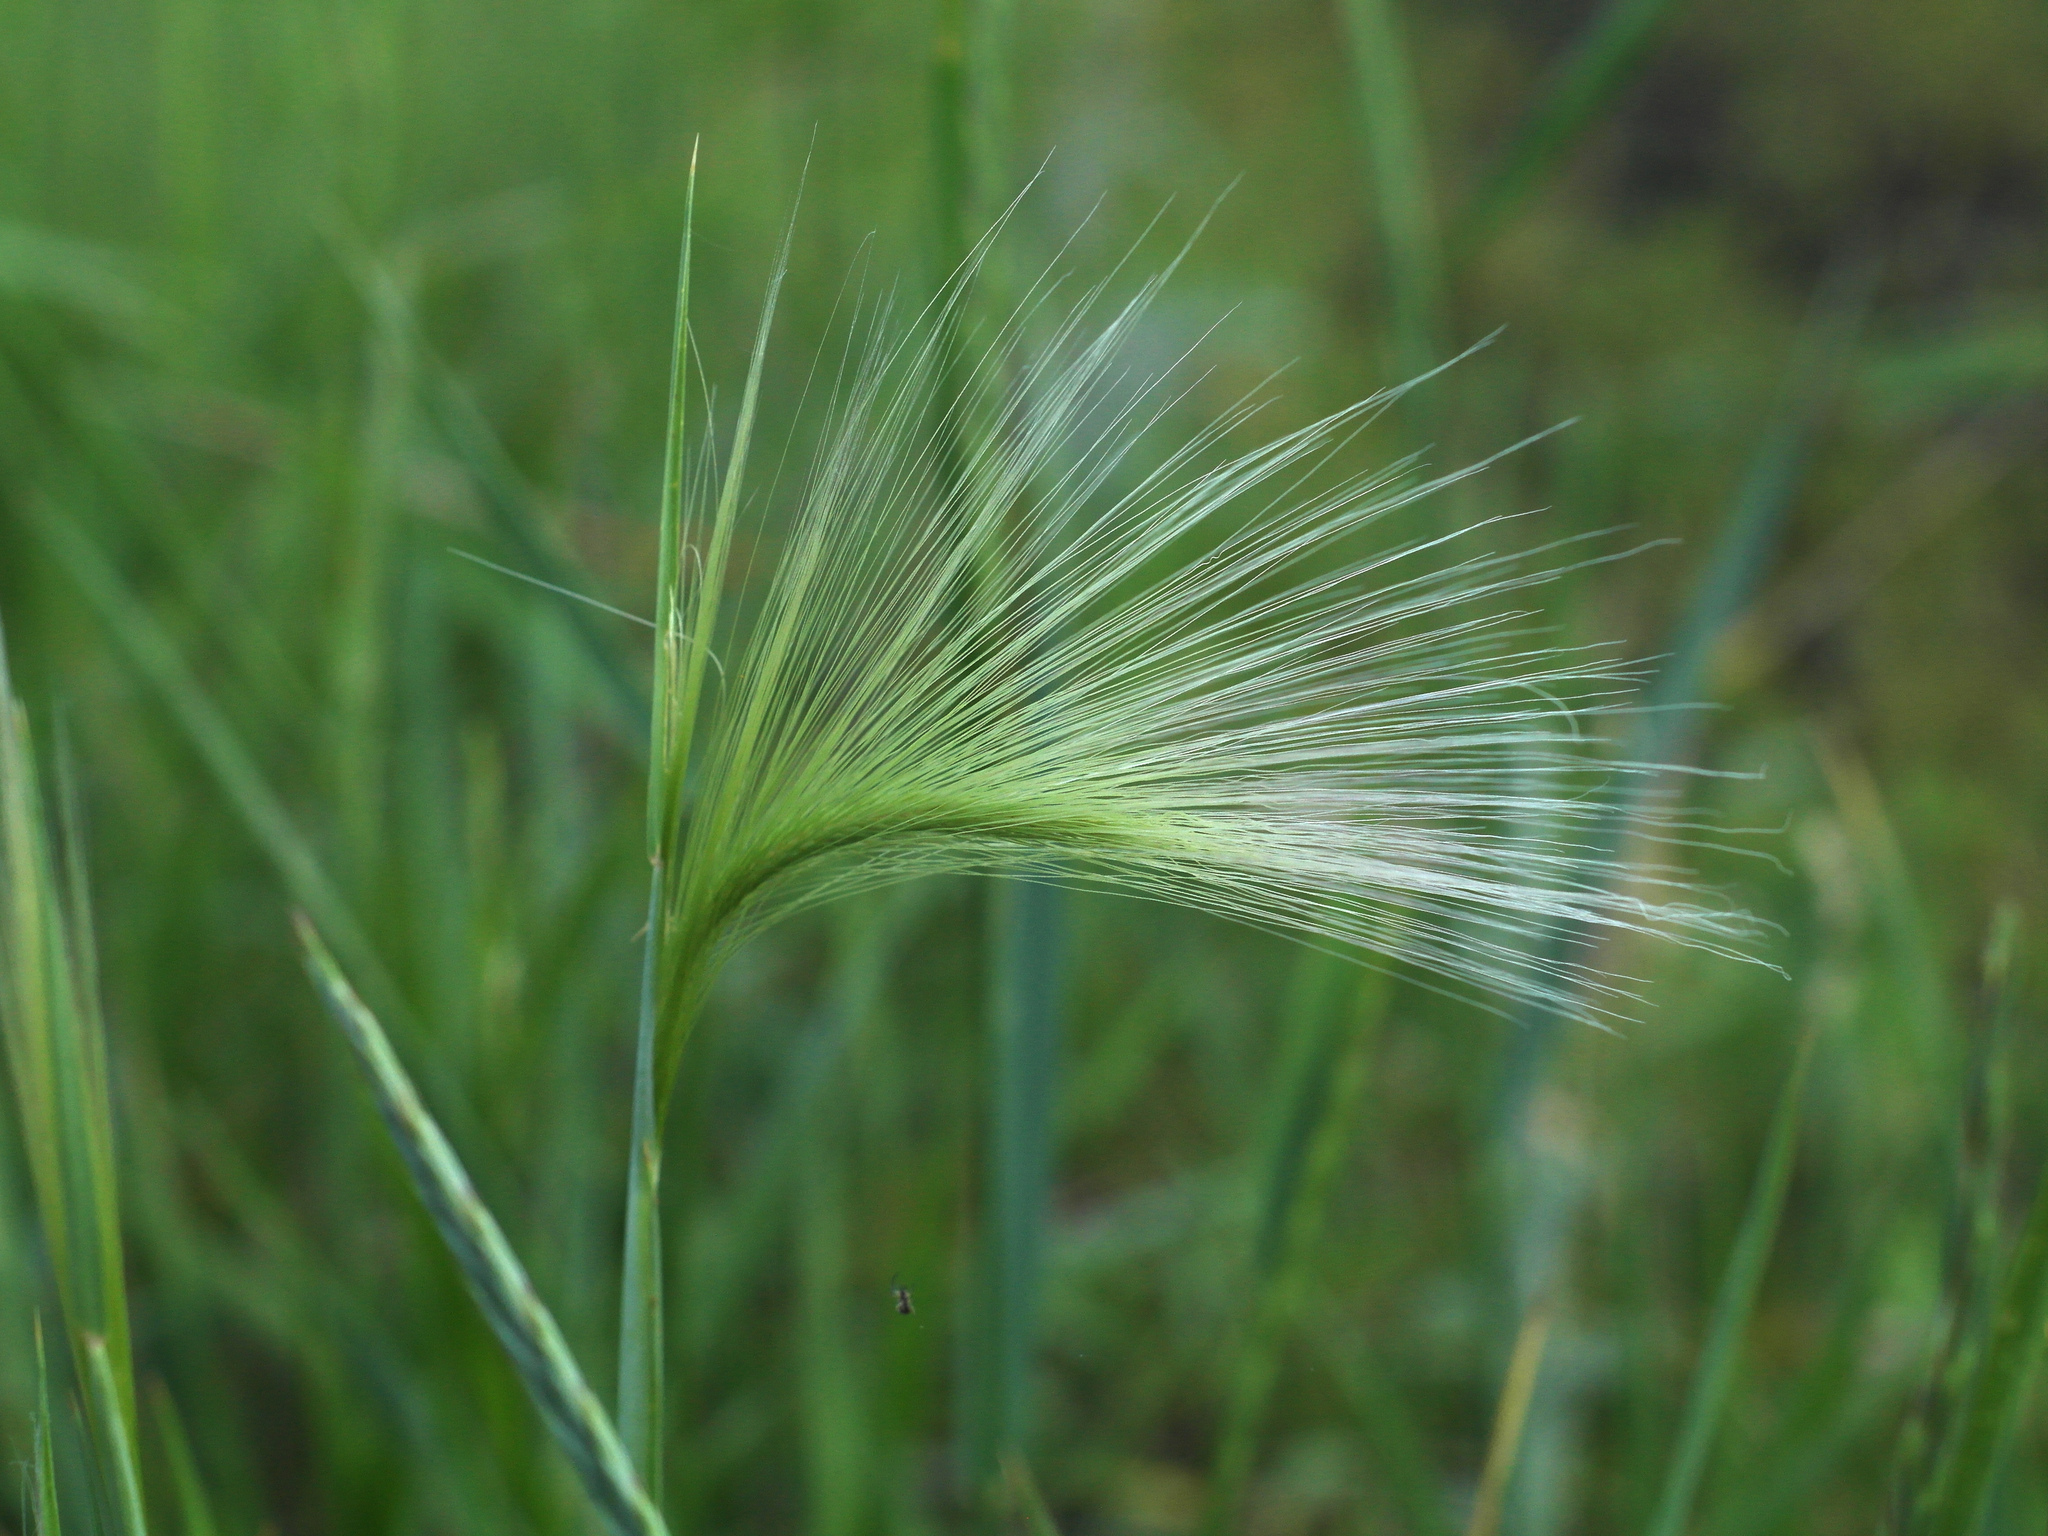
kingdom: Plantae
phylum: Tracheophyta
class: Liliopsida
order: Poales
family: Poaceae
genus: Hordeum
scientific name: Hordeum jubatum
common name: Foxtail barley
